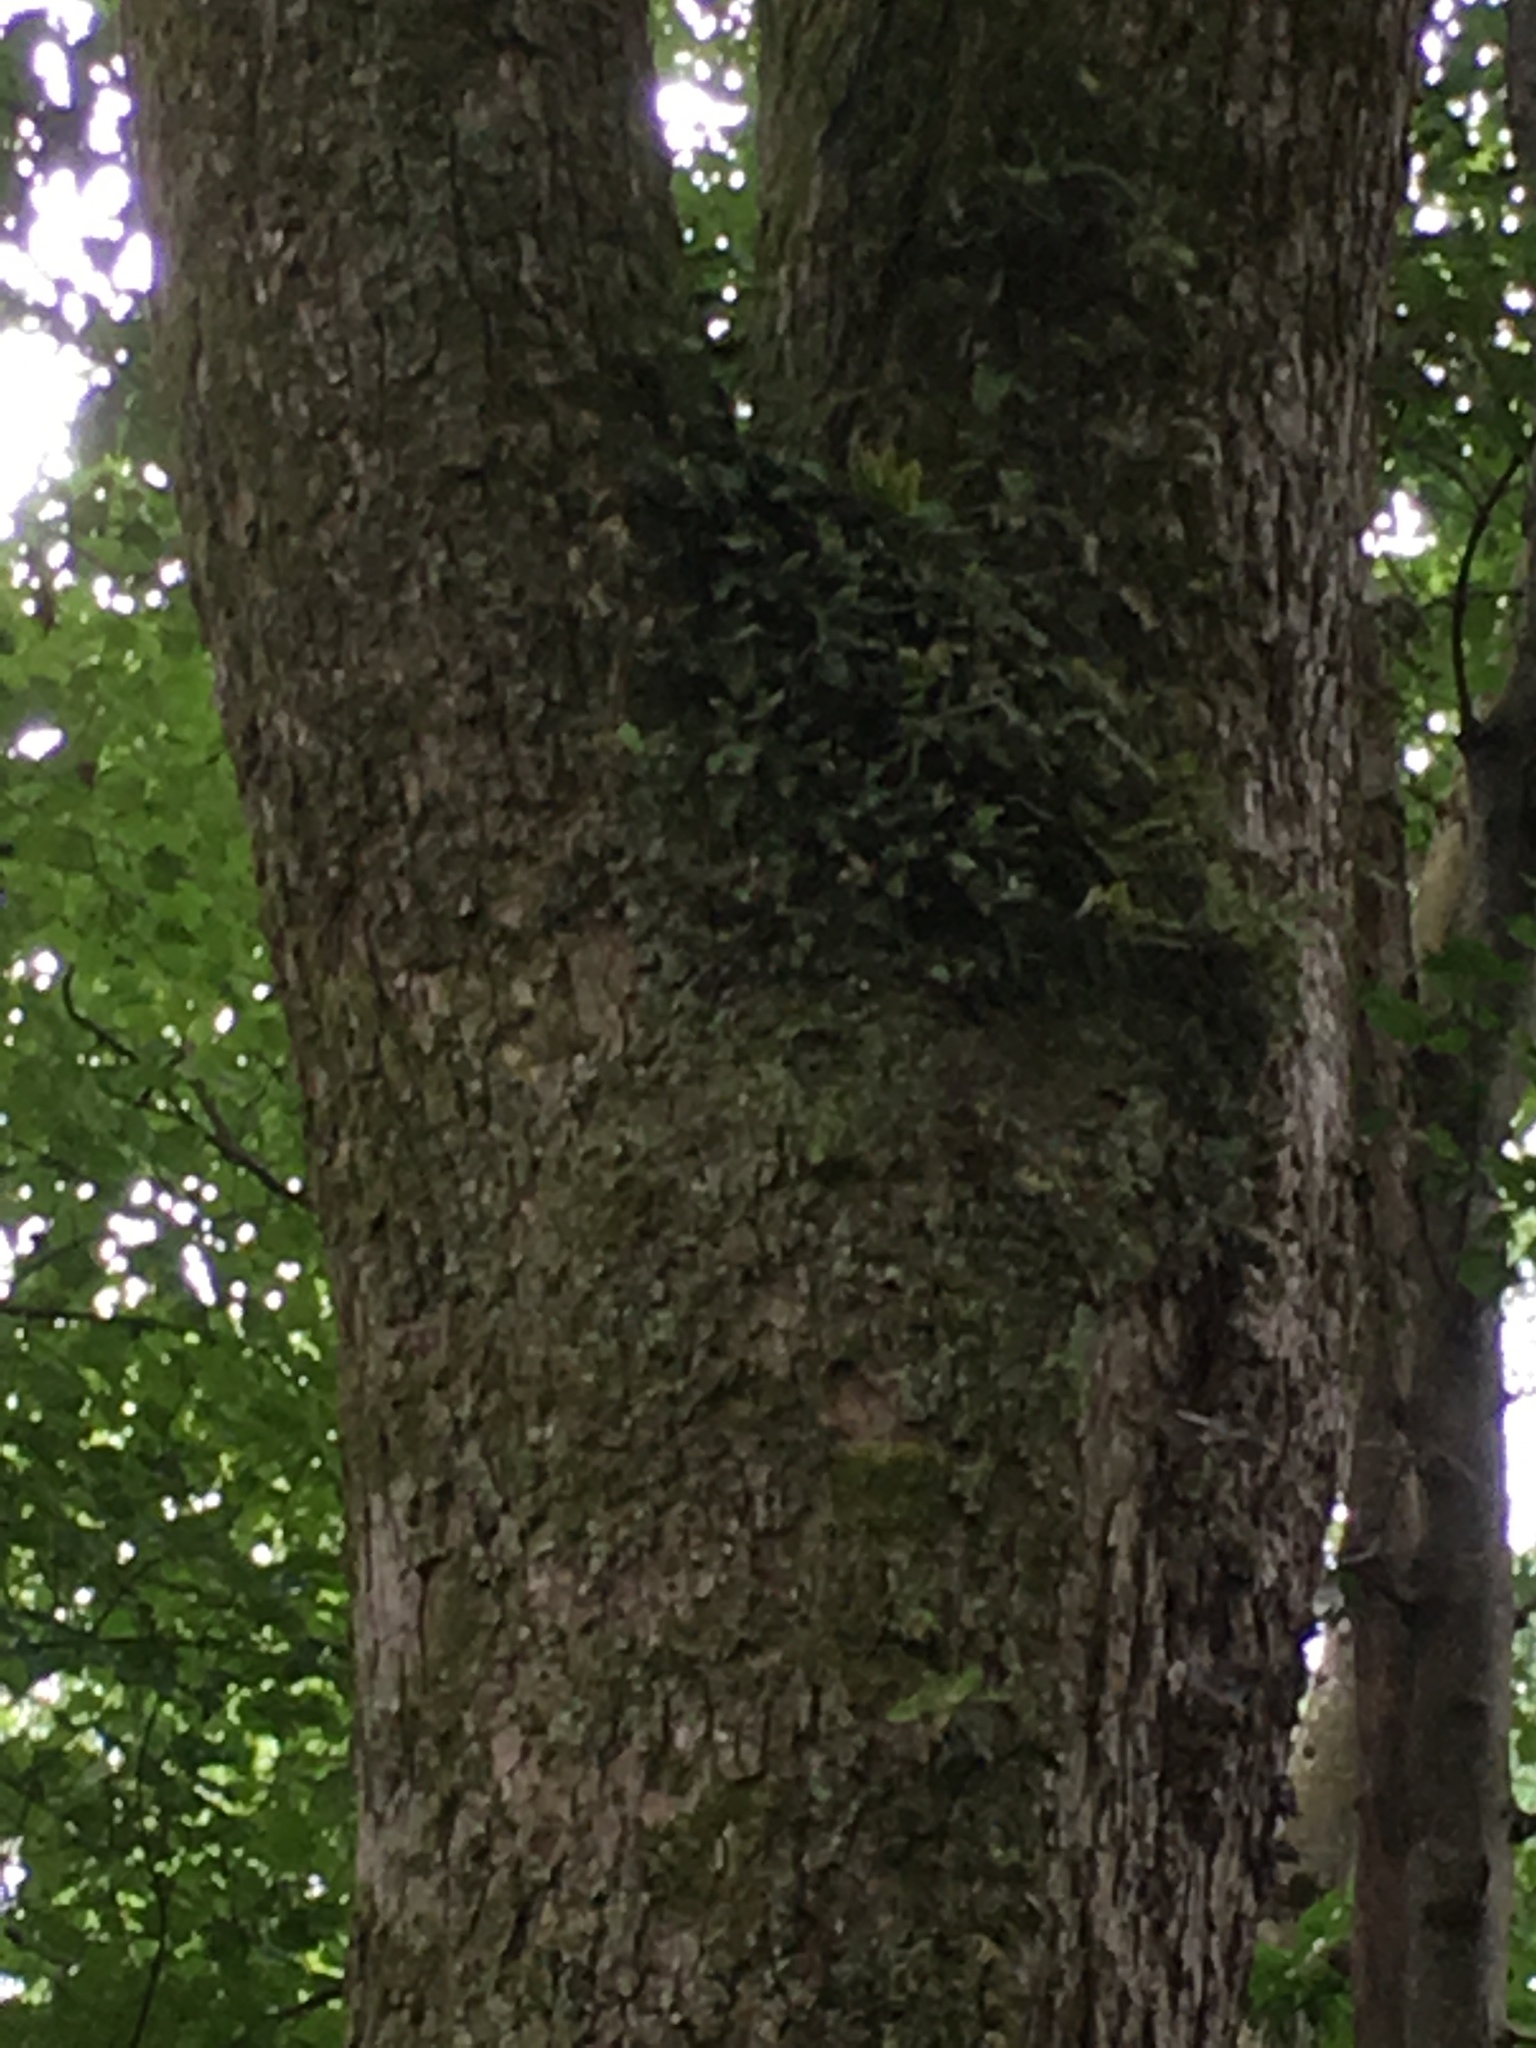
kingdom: Plantae
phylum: Tracheophyta
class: Polypodiopsida
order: Polypodiales
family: Polypodiaceae
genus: Pleopeltis
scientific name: Pleopeltis michauxiana
